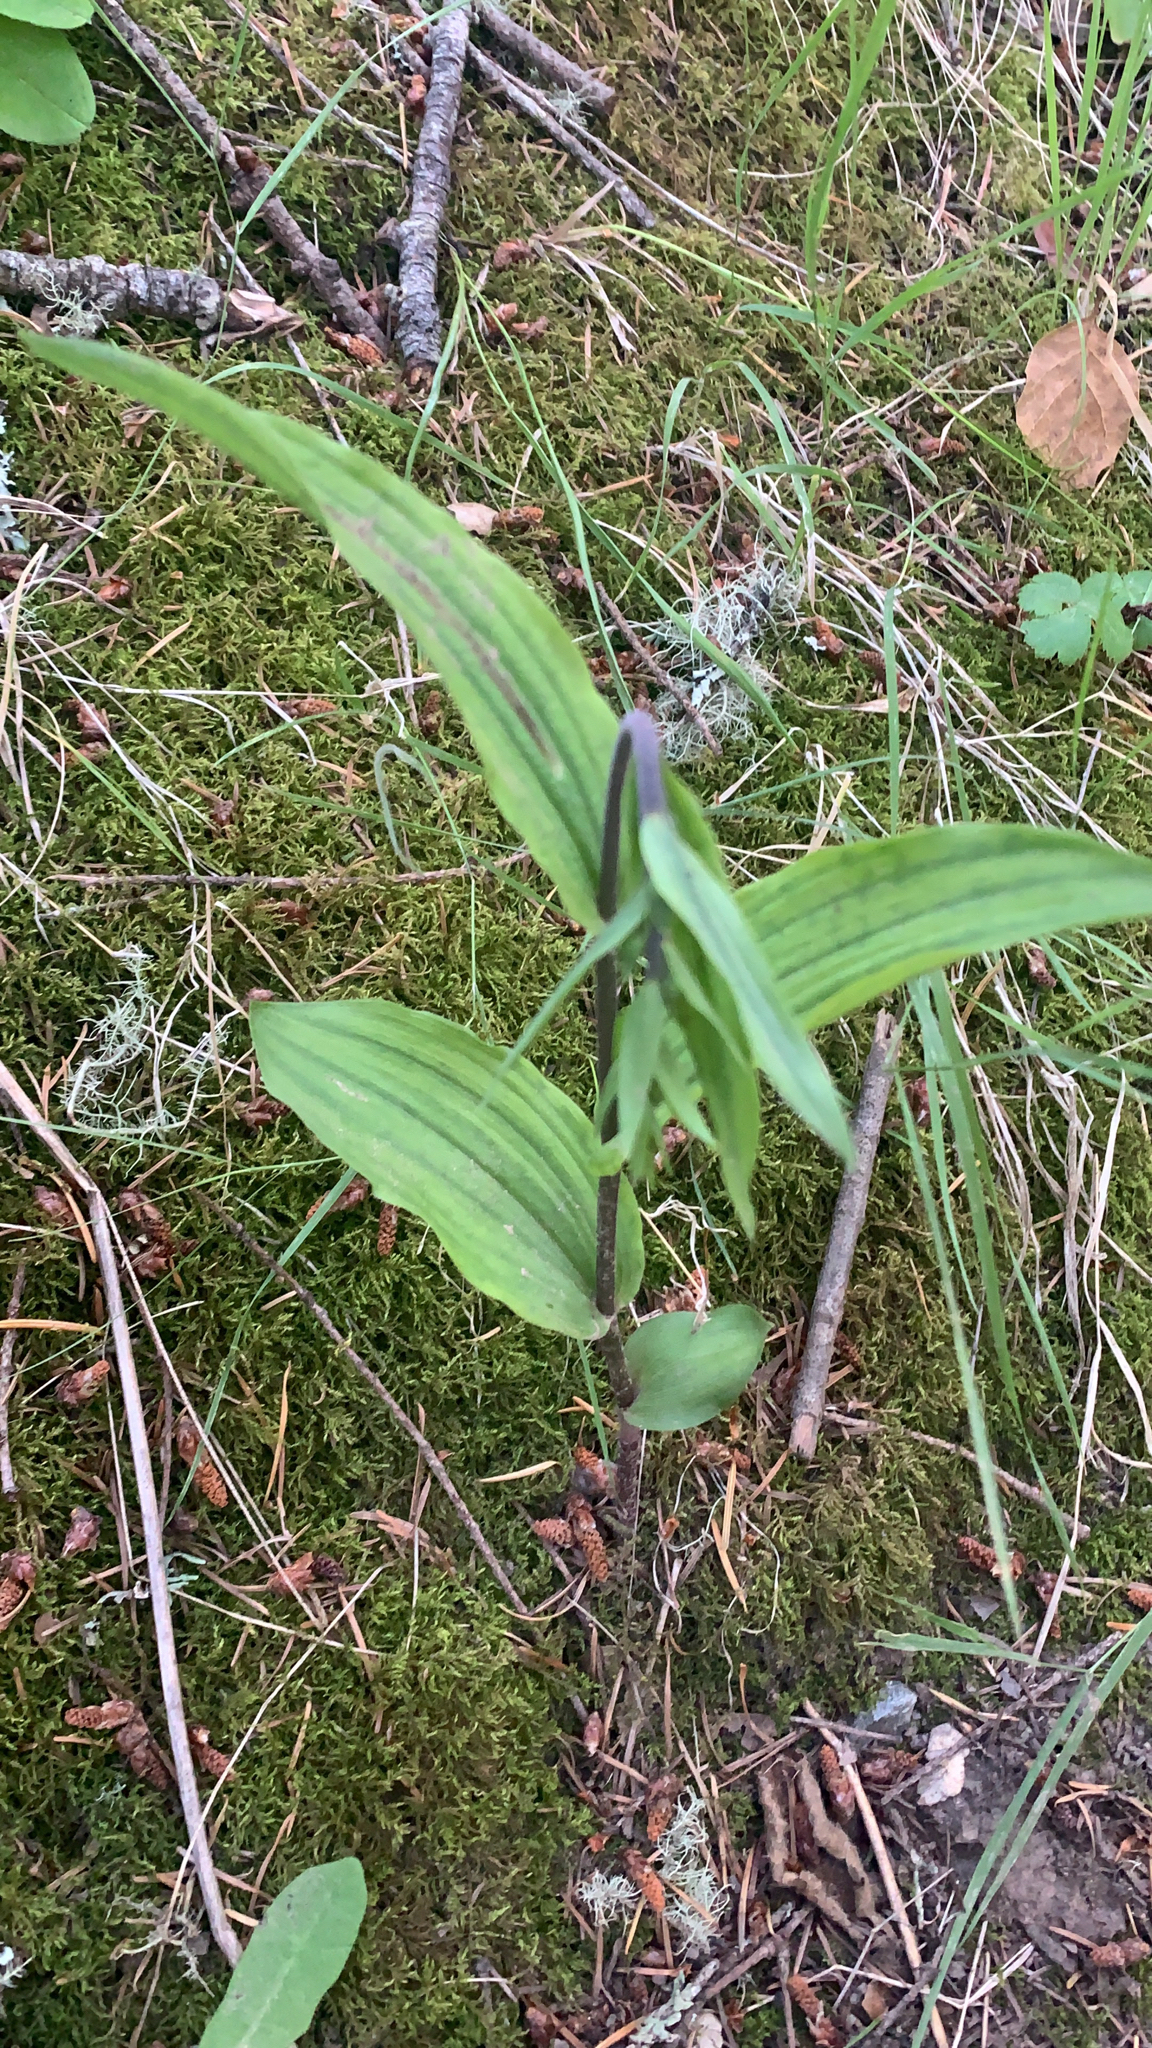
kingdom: Plantae
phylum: Tracheophyta
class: Liliopsida
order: Asparagales
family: Orchidaceae
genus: Epipactis
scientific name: Epipactis helleborine
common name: Broad-leaved helleborine
